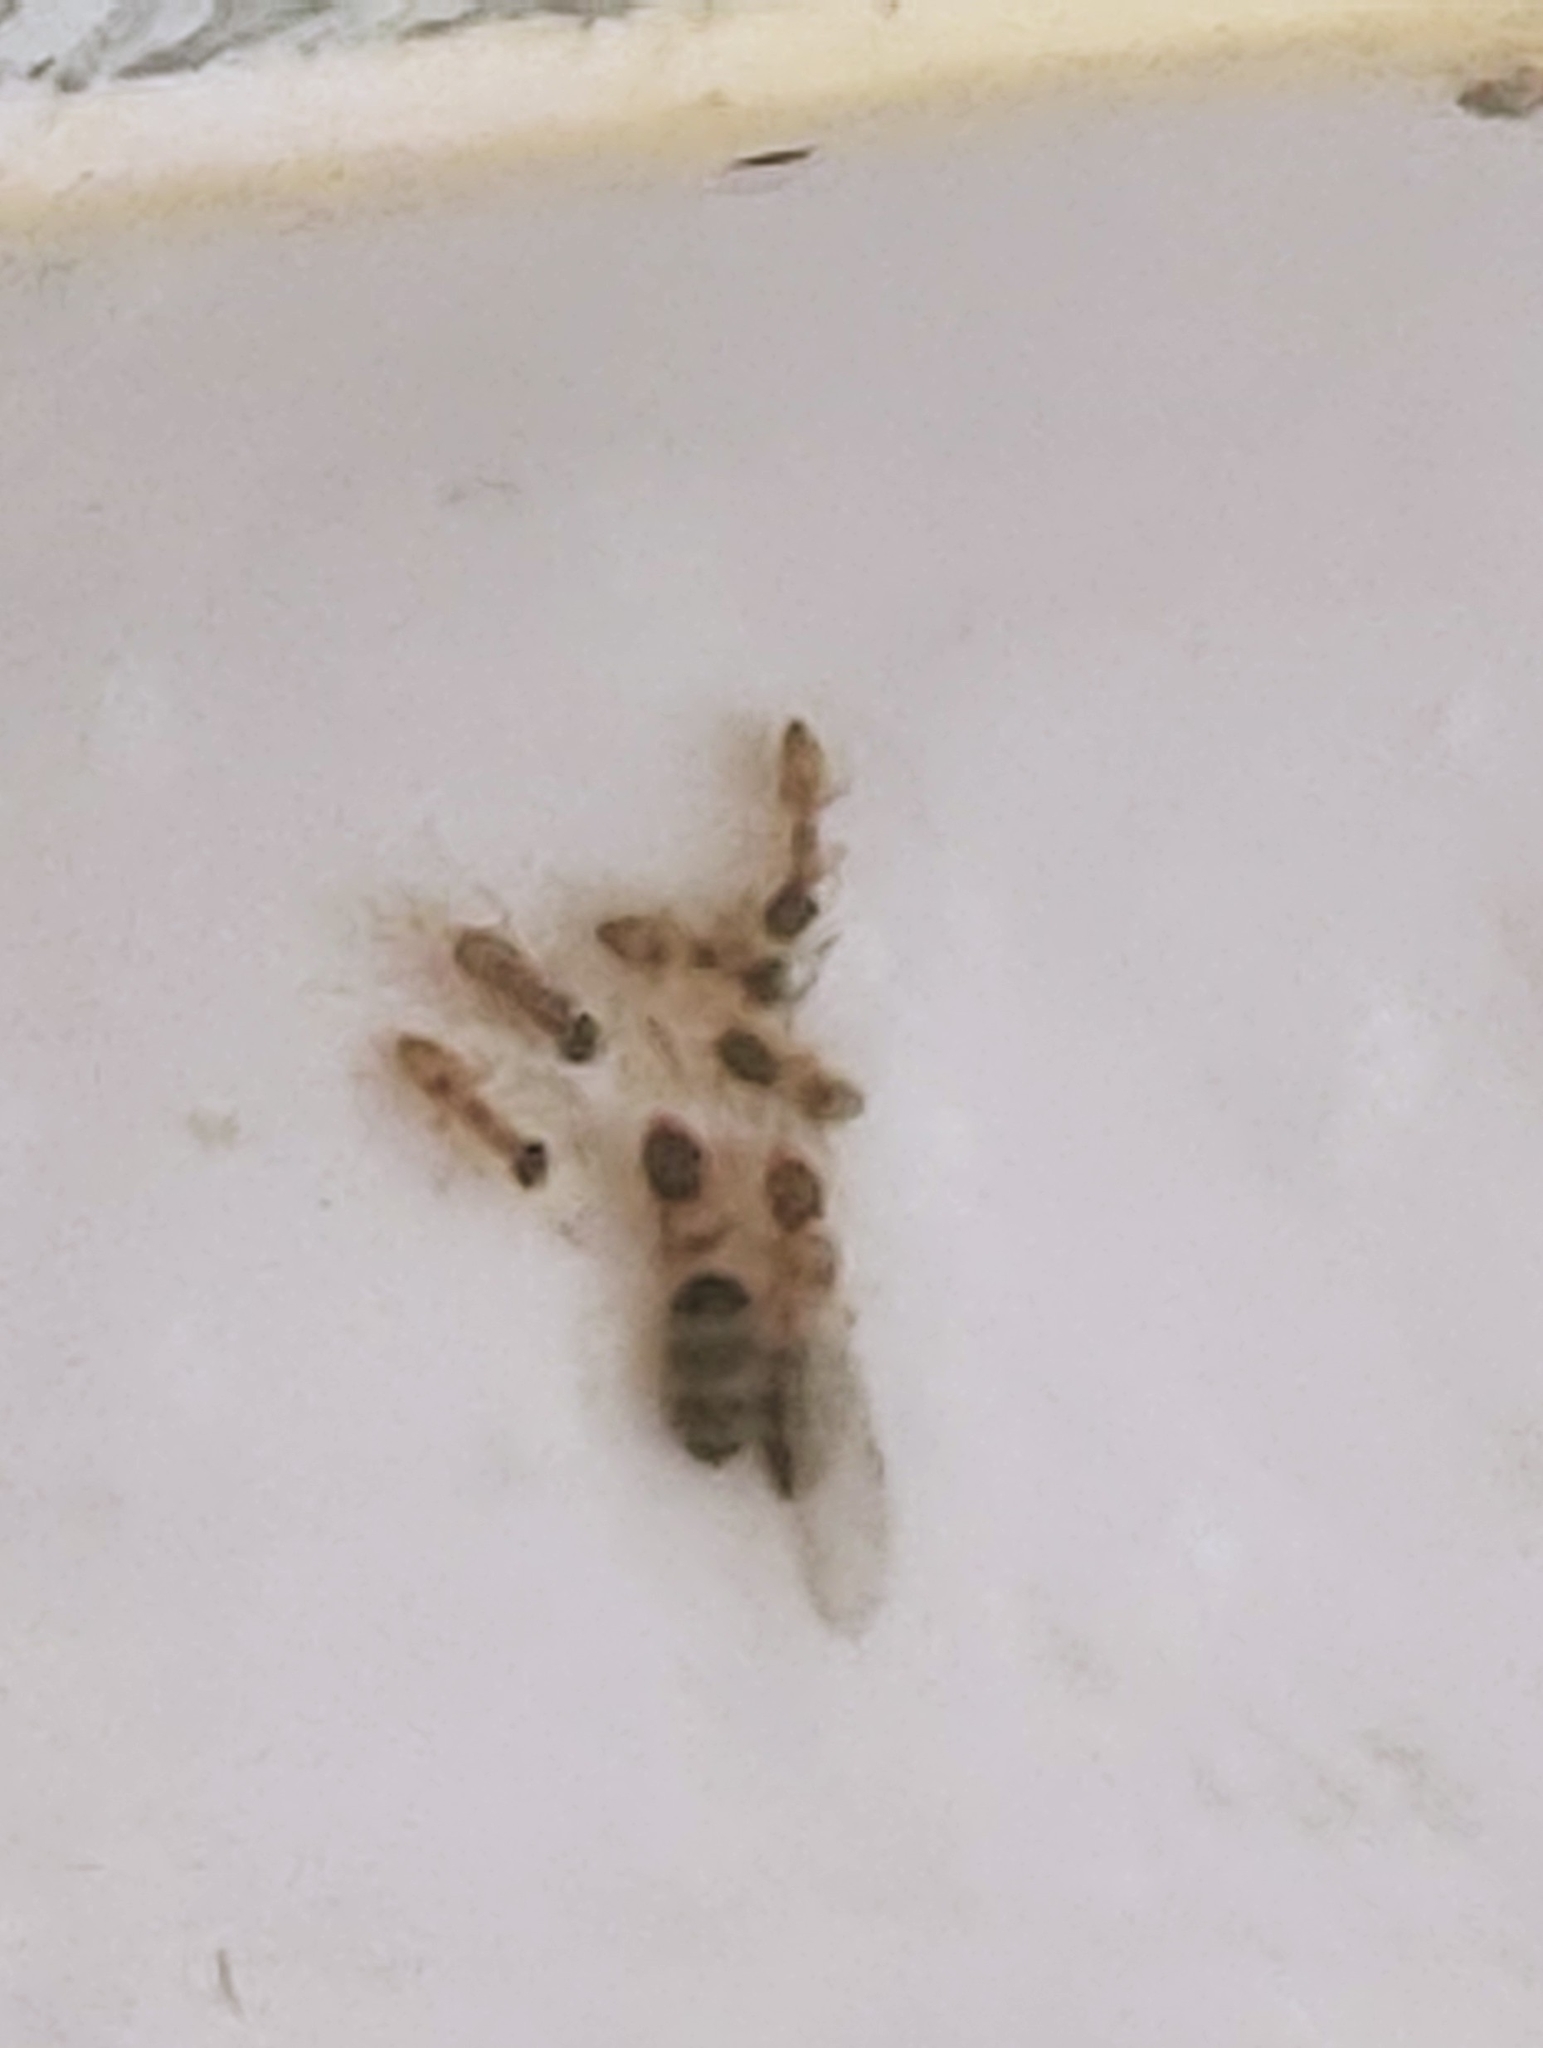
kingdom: Animalia
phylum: Arthropoda
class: Insecta
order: Hymenoptera
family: Formicidae
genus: Tapinoma
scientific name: Tapinoma melanocephalum
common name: Ghost ant
